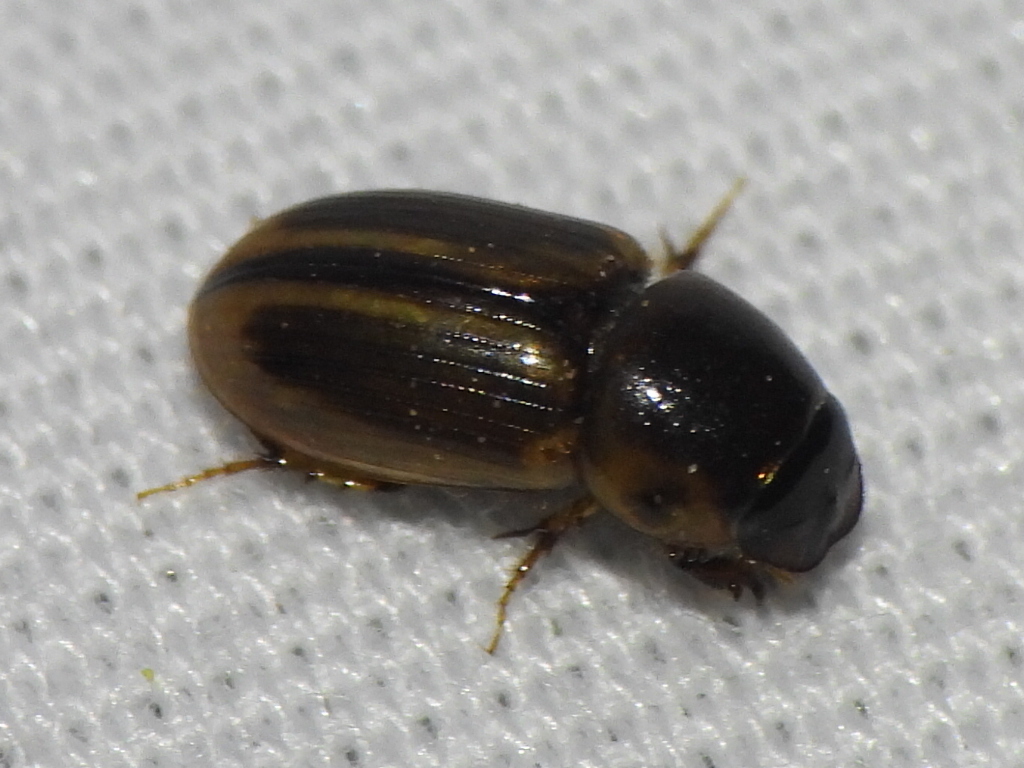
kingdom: Animalia
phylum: Arthropoda
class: Insecta
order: Coleoptera
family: Scarabaeidae
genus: Labarrus
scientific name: Labarrus lividus
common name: Scarab beetle
